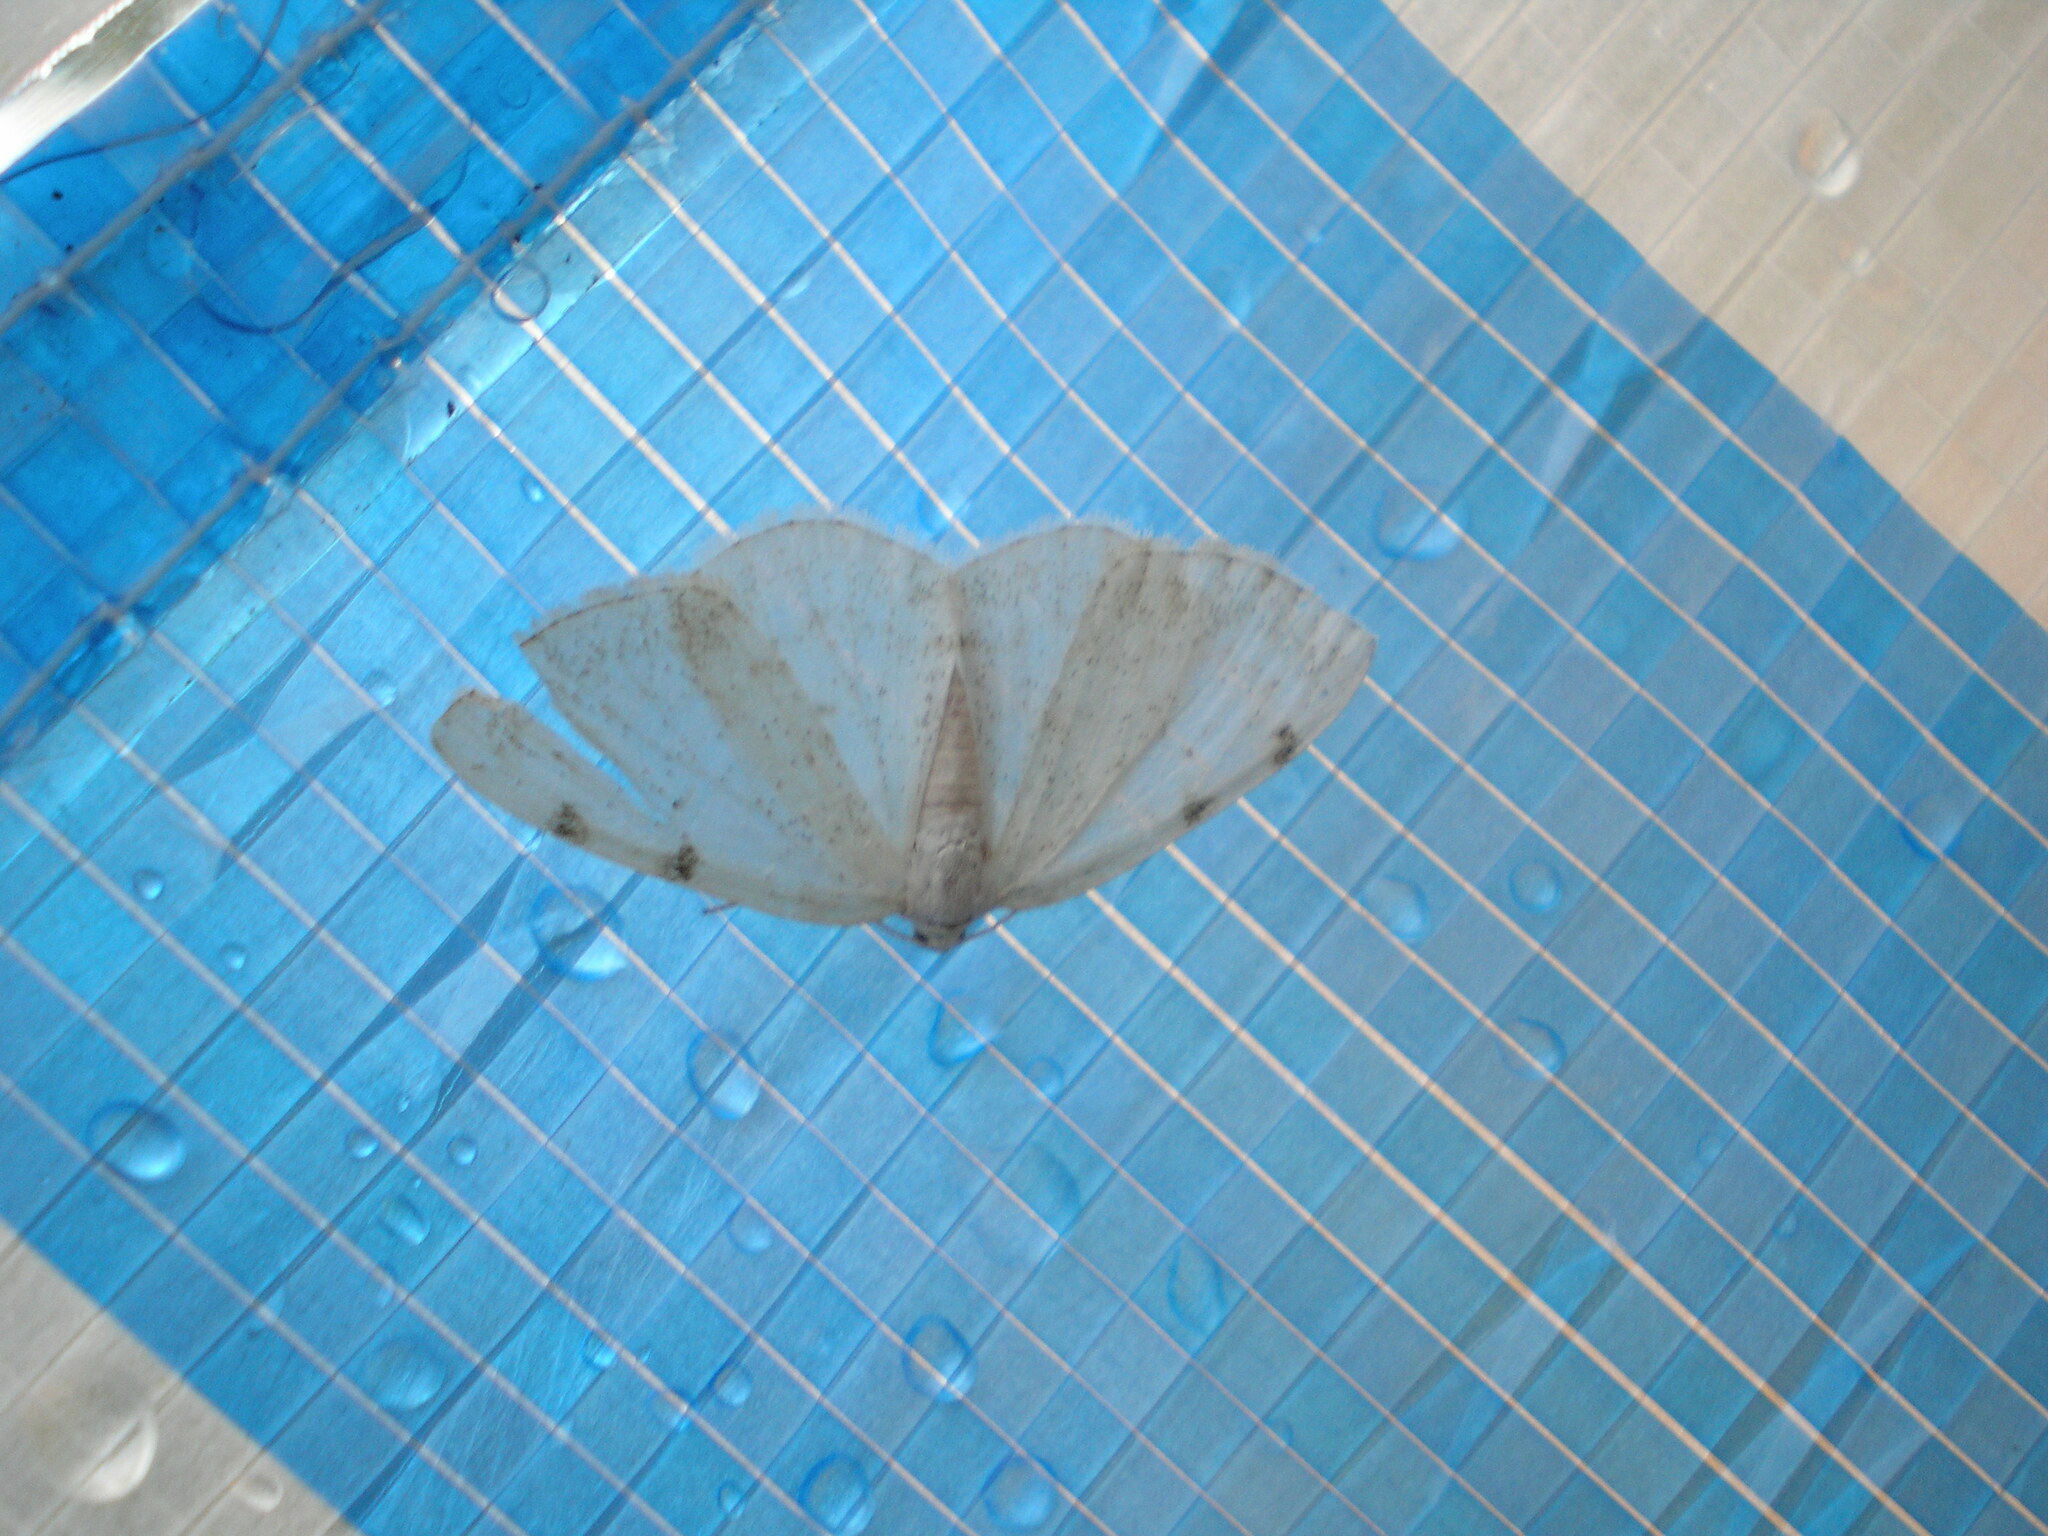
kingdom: Animalia
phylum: Arthropoda
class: Insecta
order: Lepidoptera
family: Geometridae
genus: Lomographa
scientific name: Lomographa bimaculata
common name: White-pinion spotted
